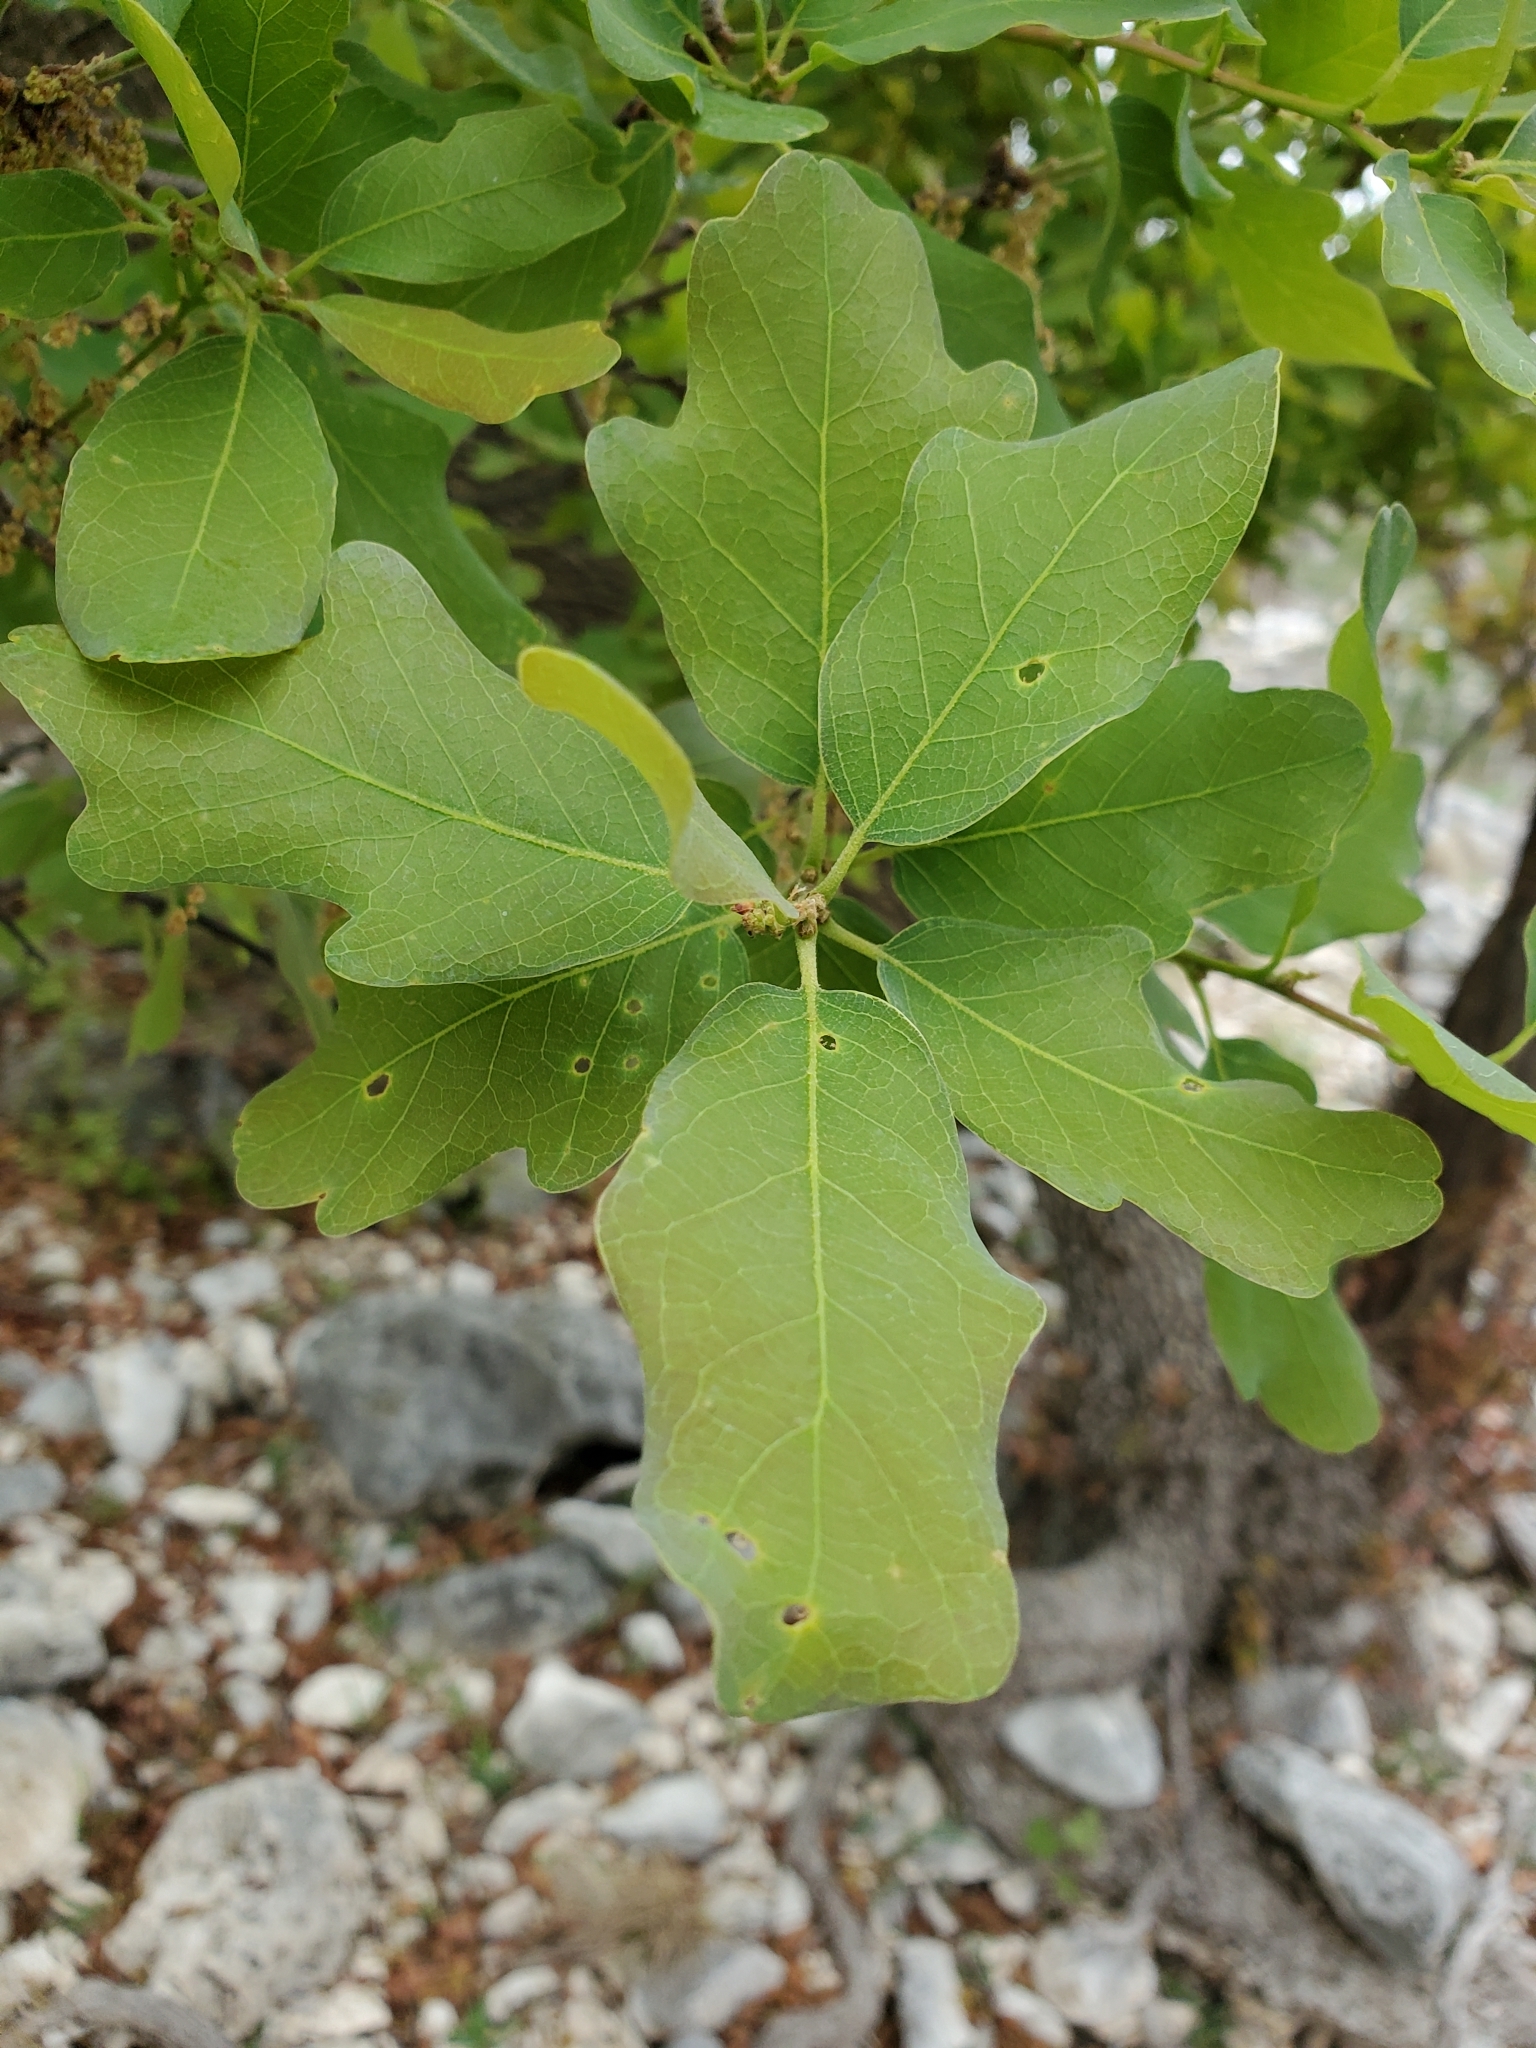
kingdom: Plantae
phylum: Tracheophyta
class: Magnoliopsida
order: Fagales
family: Fagaceae
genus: Quercus
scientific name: Quercus laceyi
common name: Lacey oak
